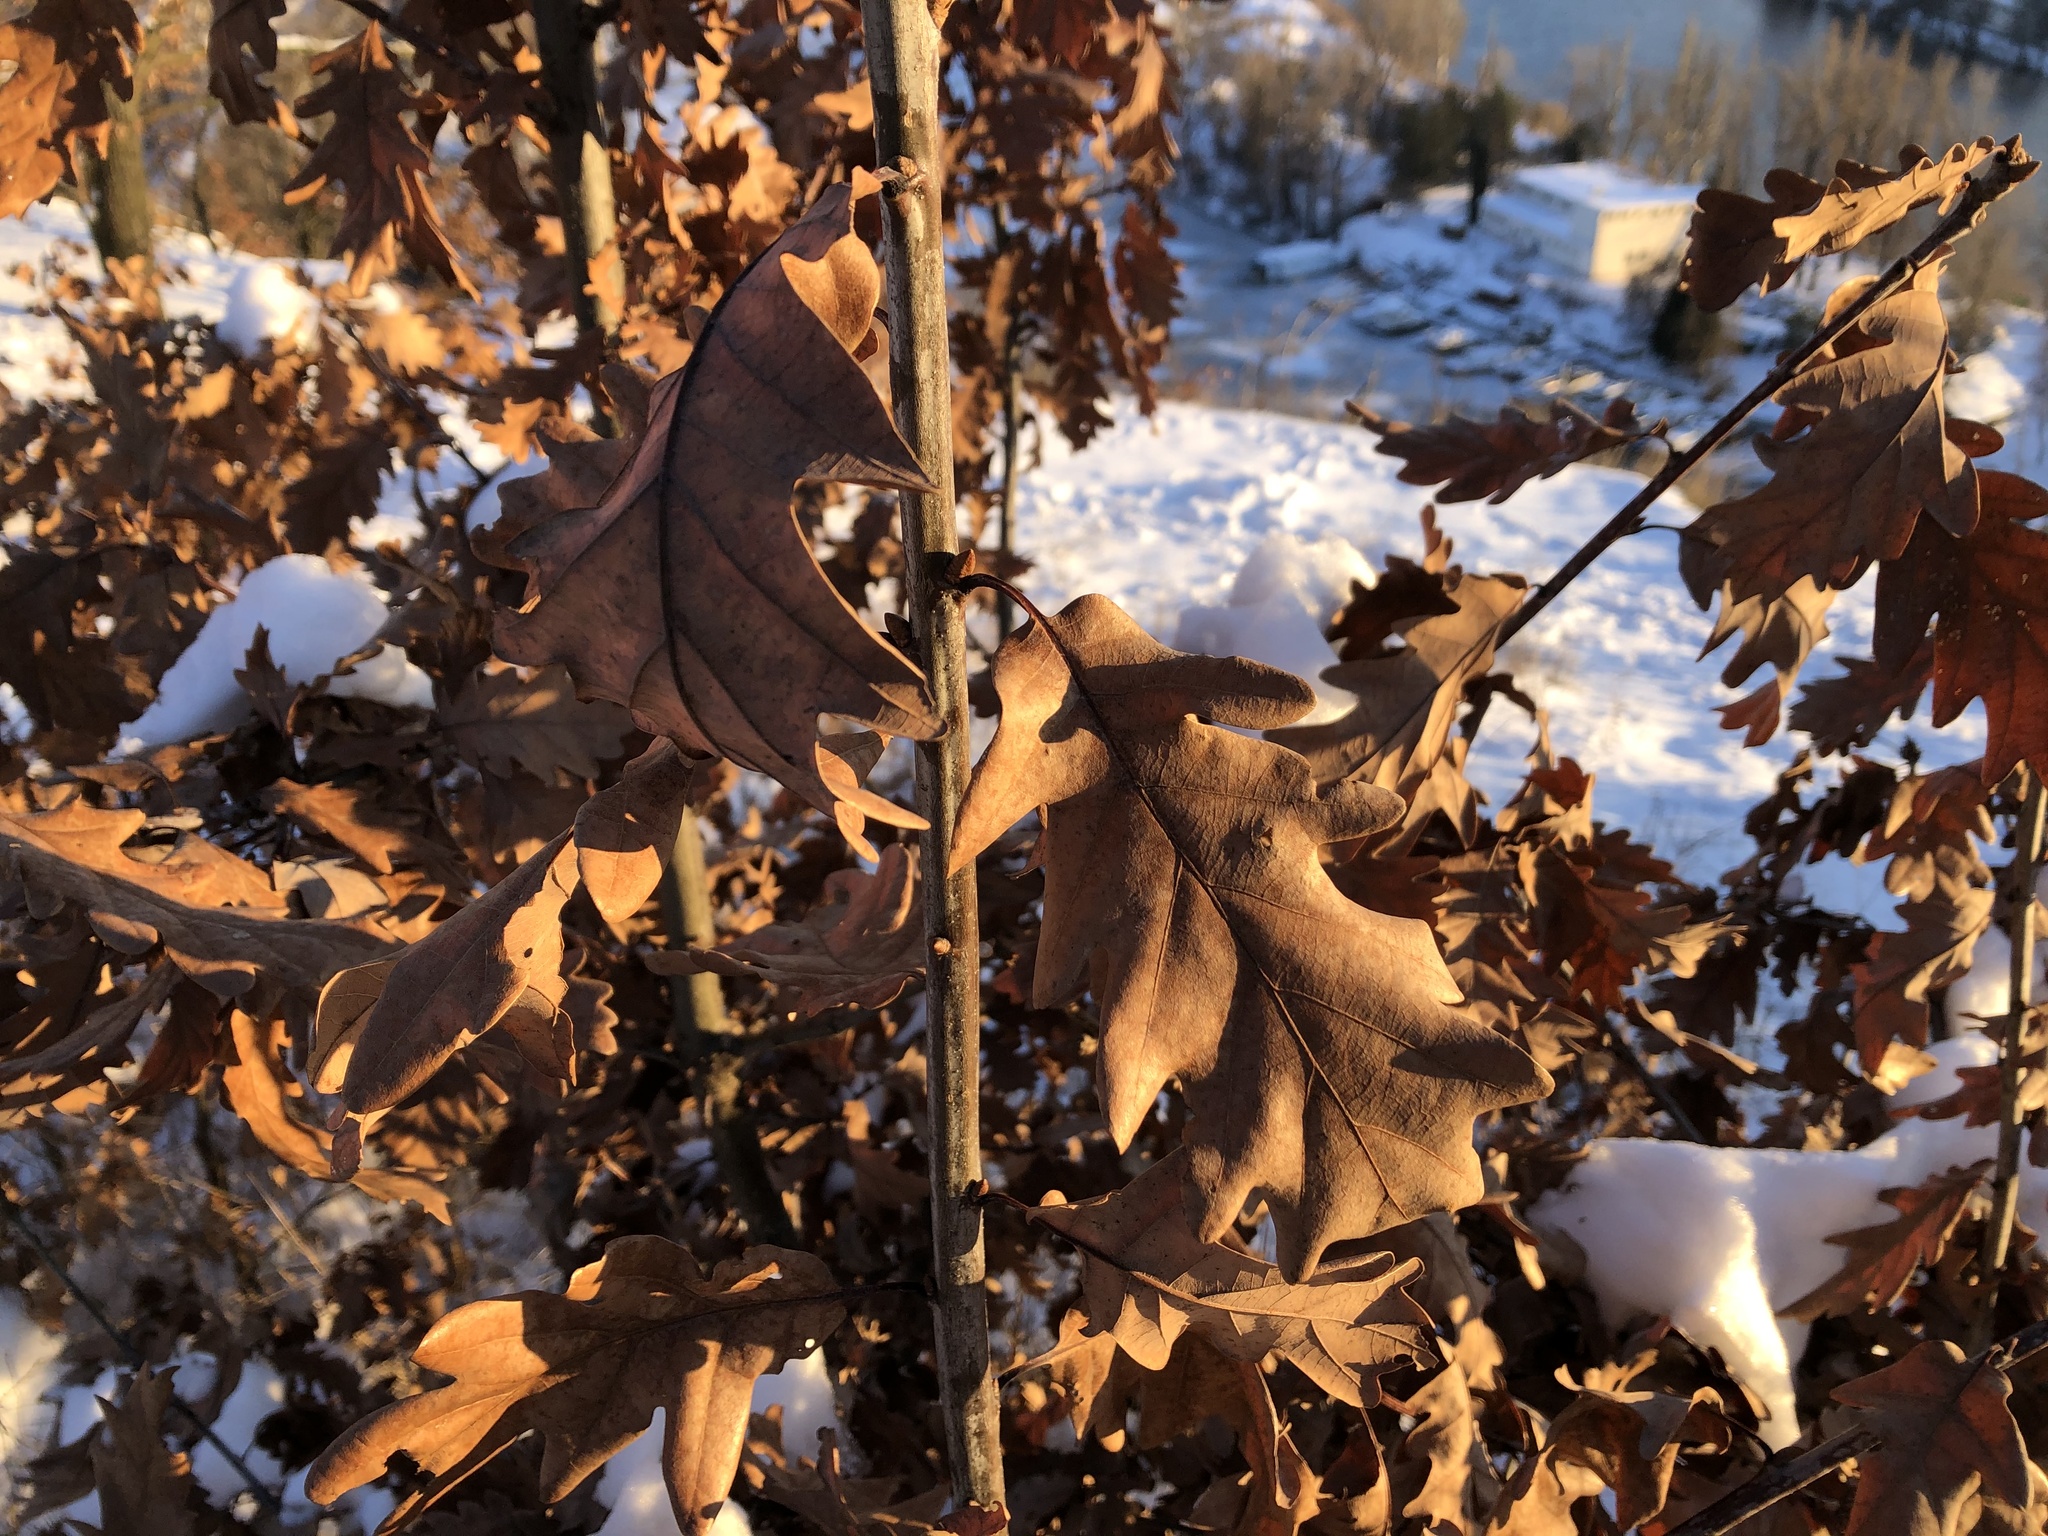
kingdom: Plantae
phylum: Tracheophyta
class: Magnoliopsida
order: Fagales
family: Fagaceae
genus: Quercus
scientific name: Quercus petraea
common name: Sessile oak
